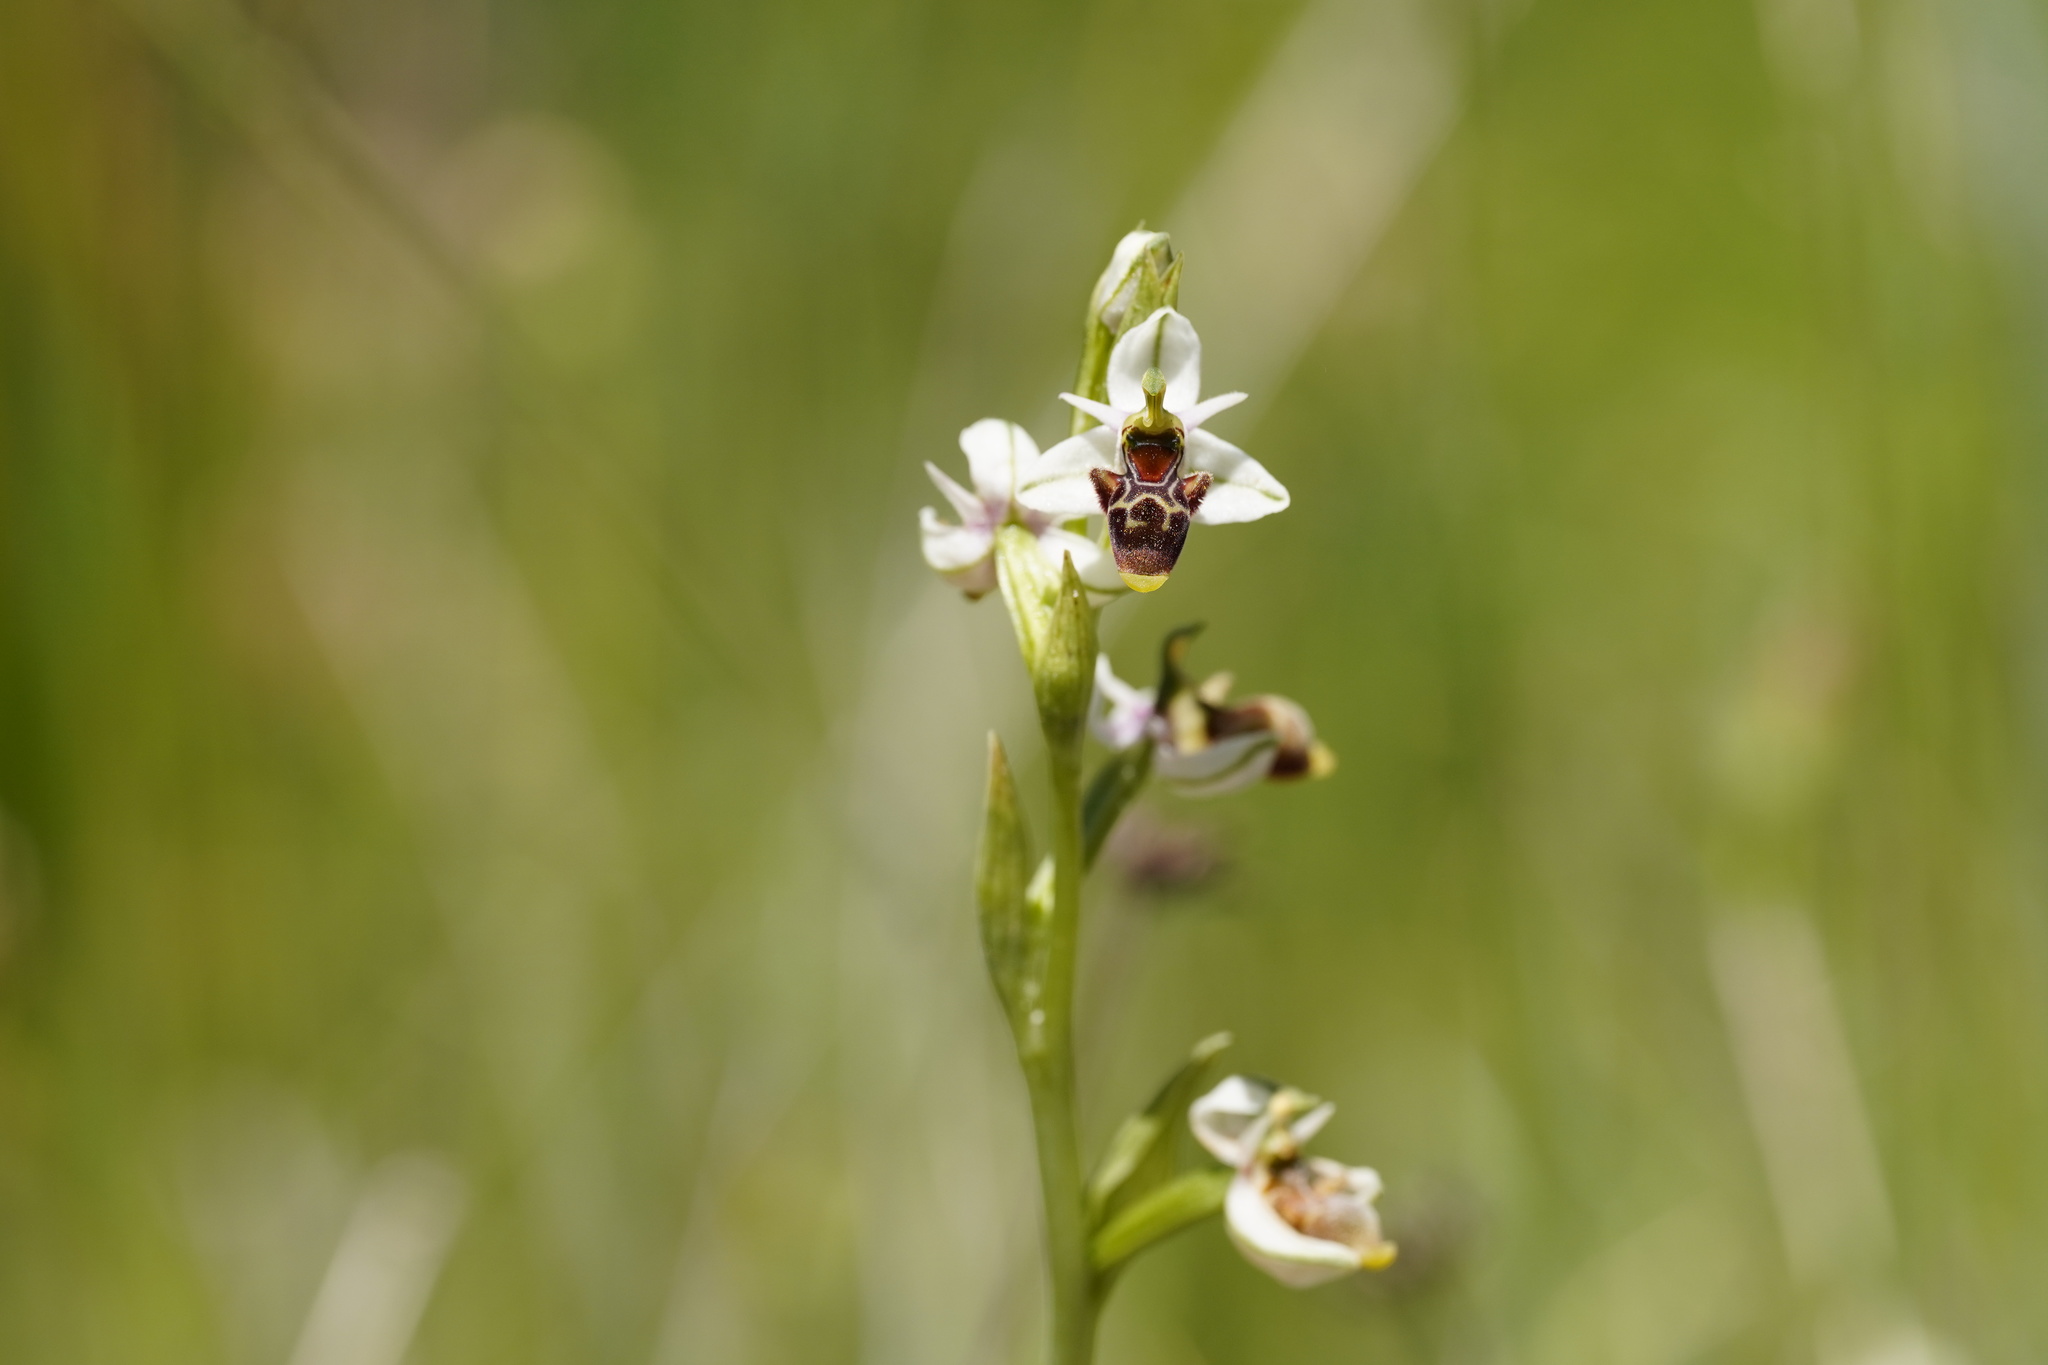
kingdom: Plantae
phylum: Tracheophyta
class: Liliopsida
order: Asparagales
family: Orchidaceae
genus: Ophrys
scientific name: Ophrys scolopax
